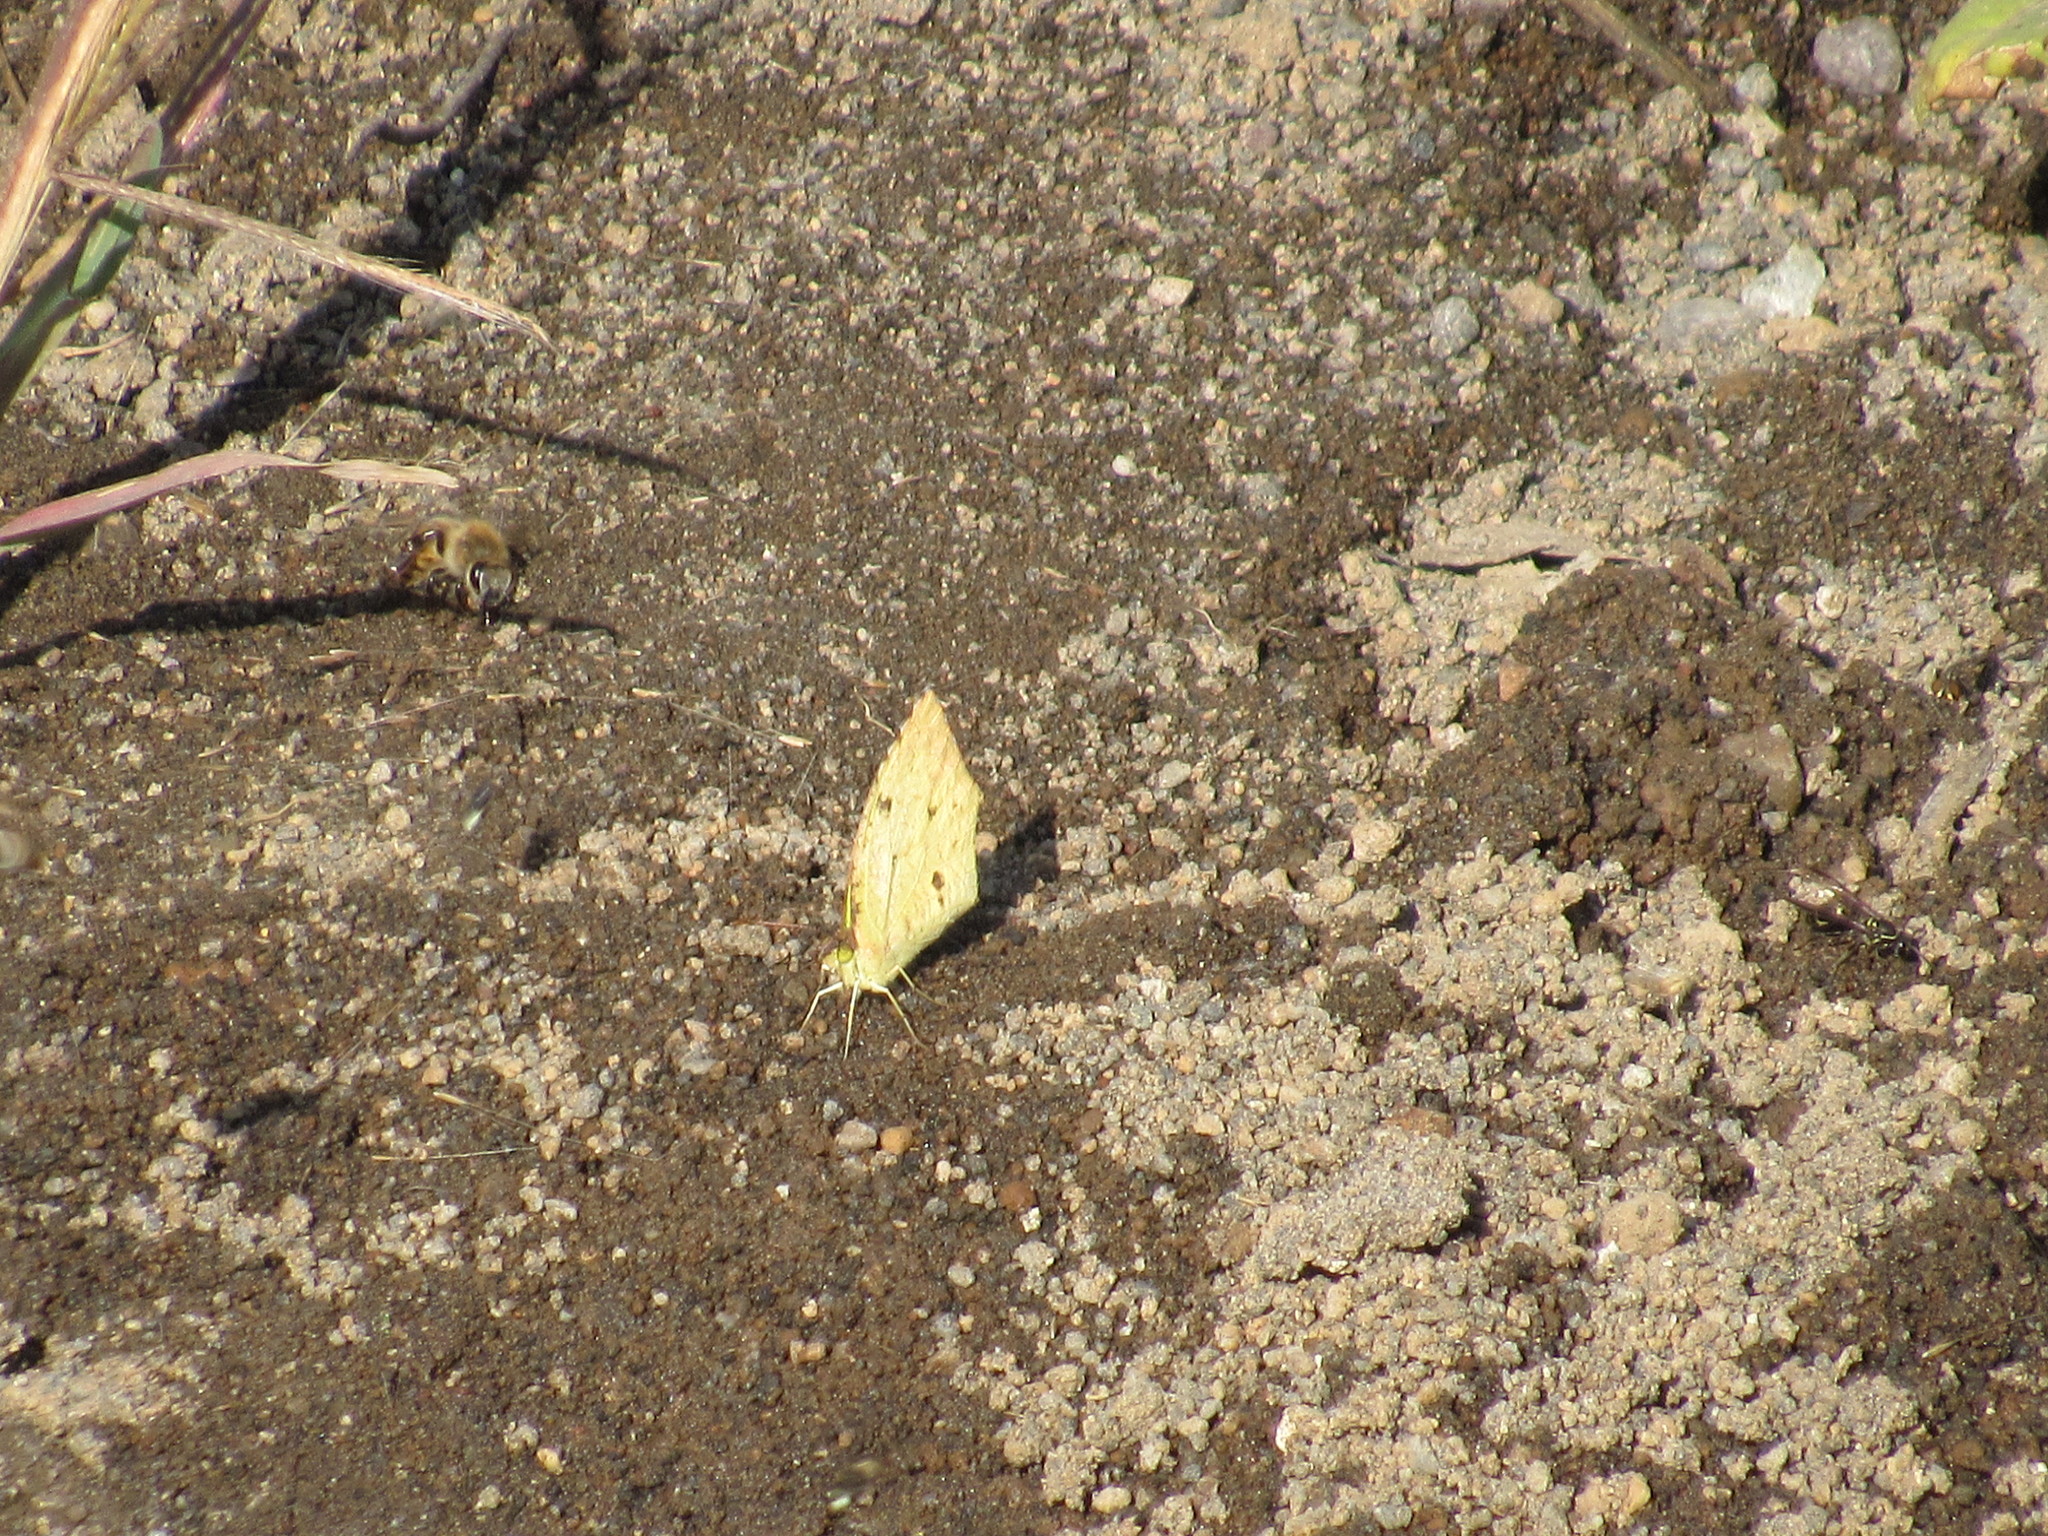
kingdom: Animalia
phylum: Arthropoda
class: Insecta
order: Lepidoptera
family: Pieridae
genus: Abaeis
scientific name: Abaeis salome
